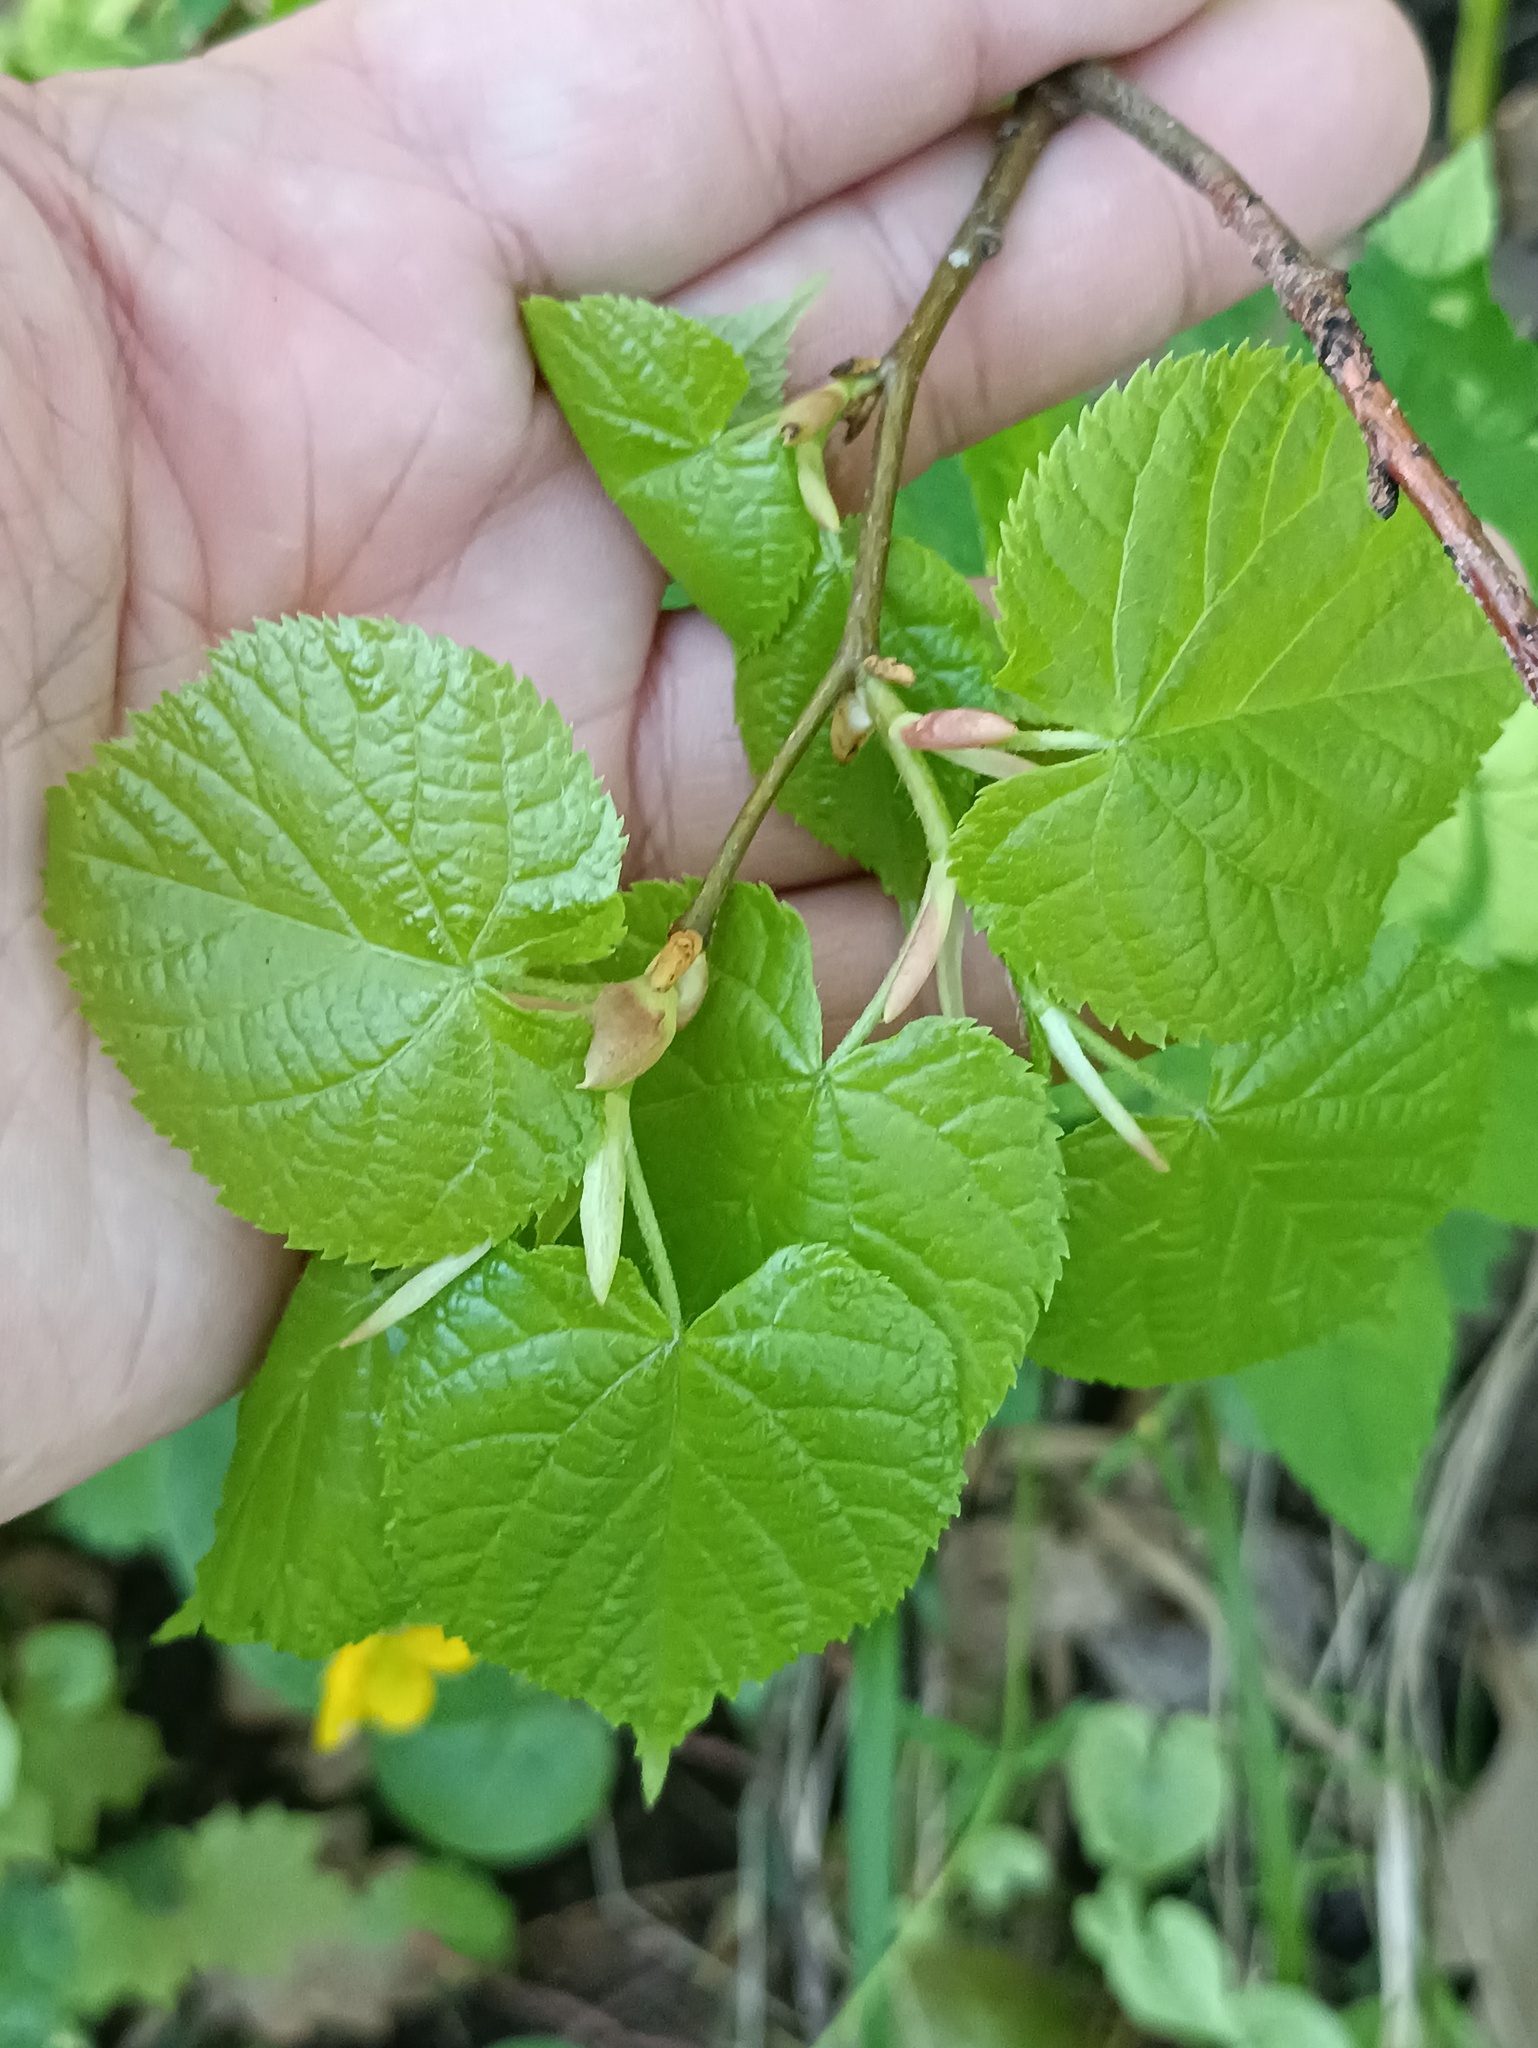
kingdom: Plantae
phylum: Tracheophyta
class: Magnoliopsida
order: Malvales
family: Malvaceae
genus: Tilia
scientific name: Tilia cordata
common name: Small-leaved lime
